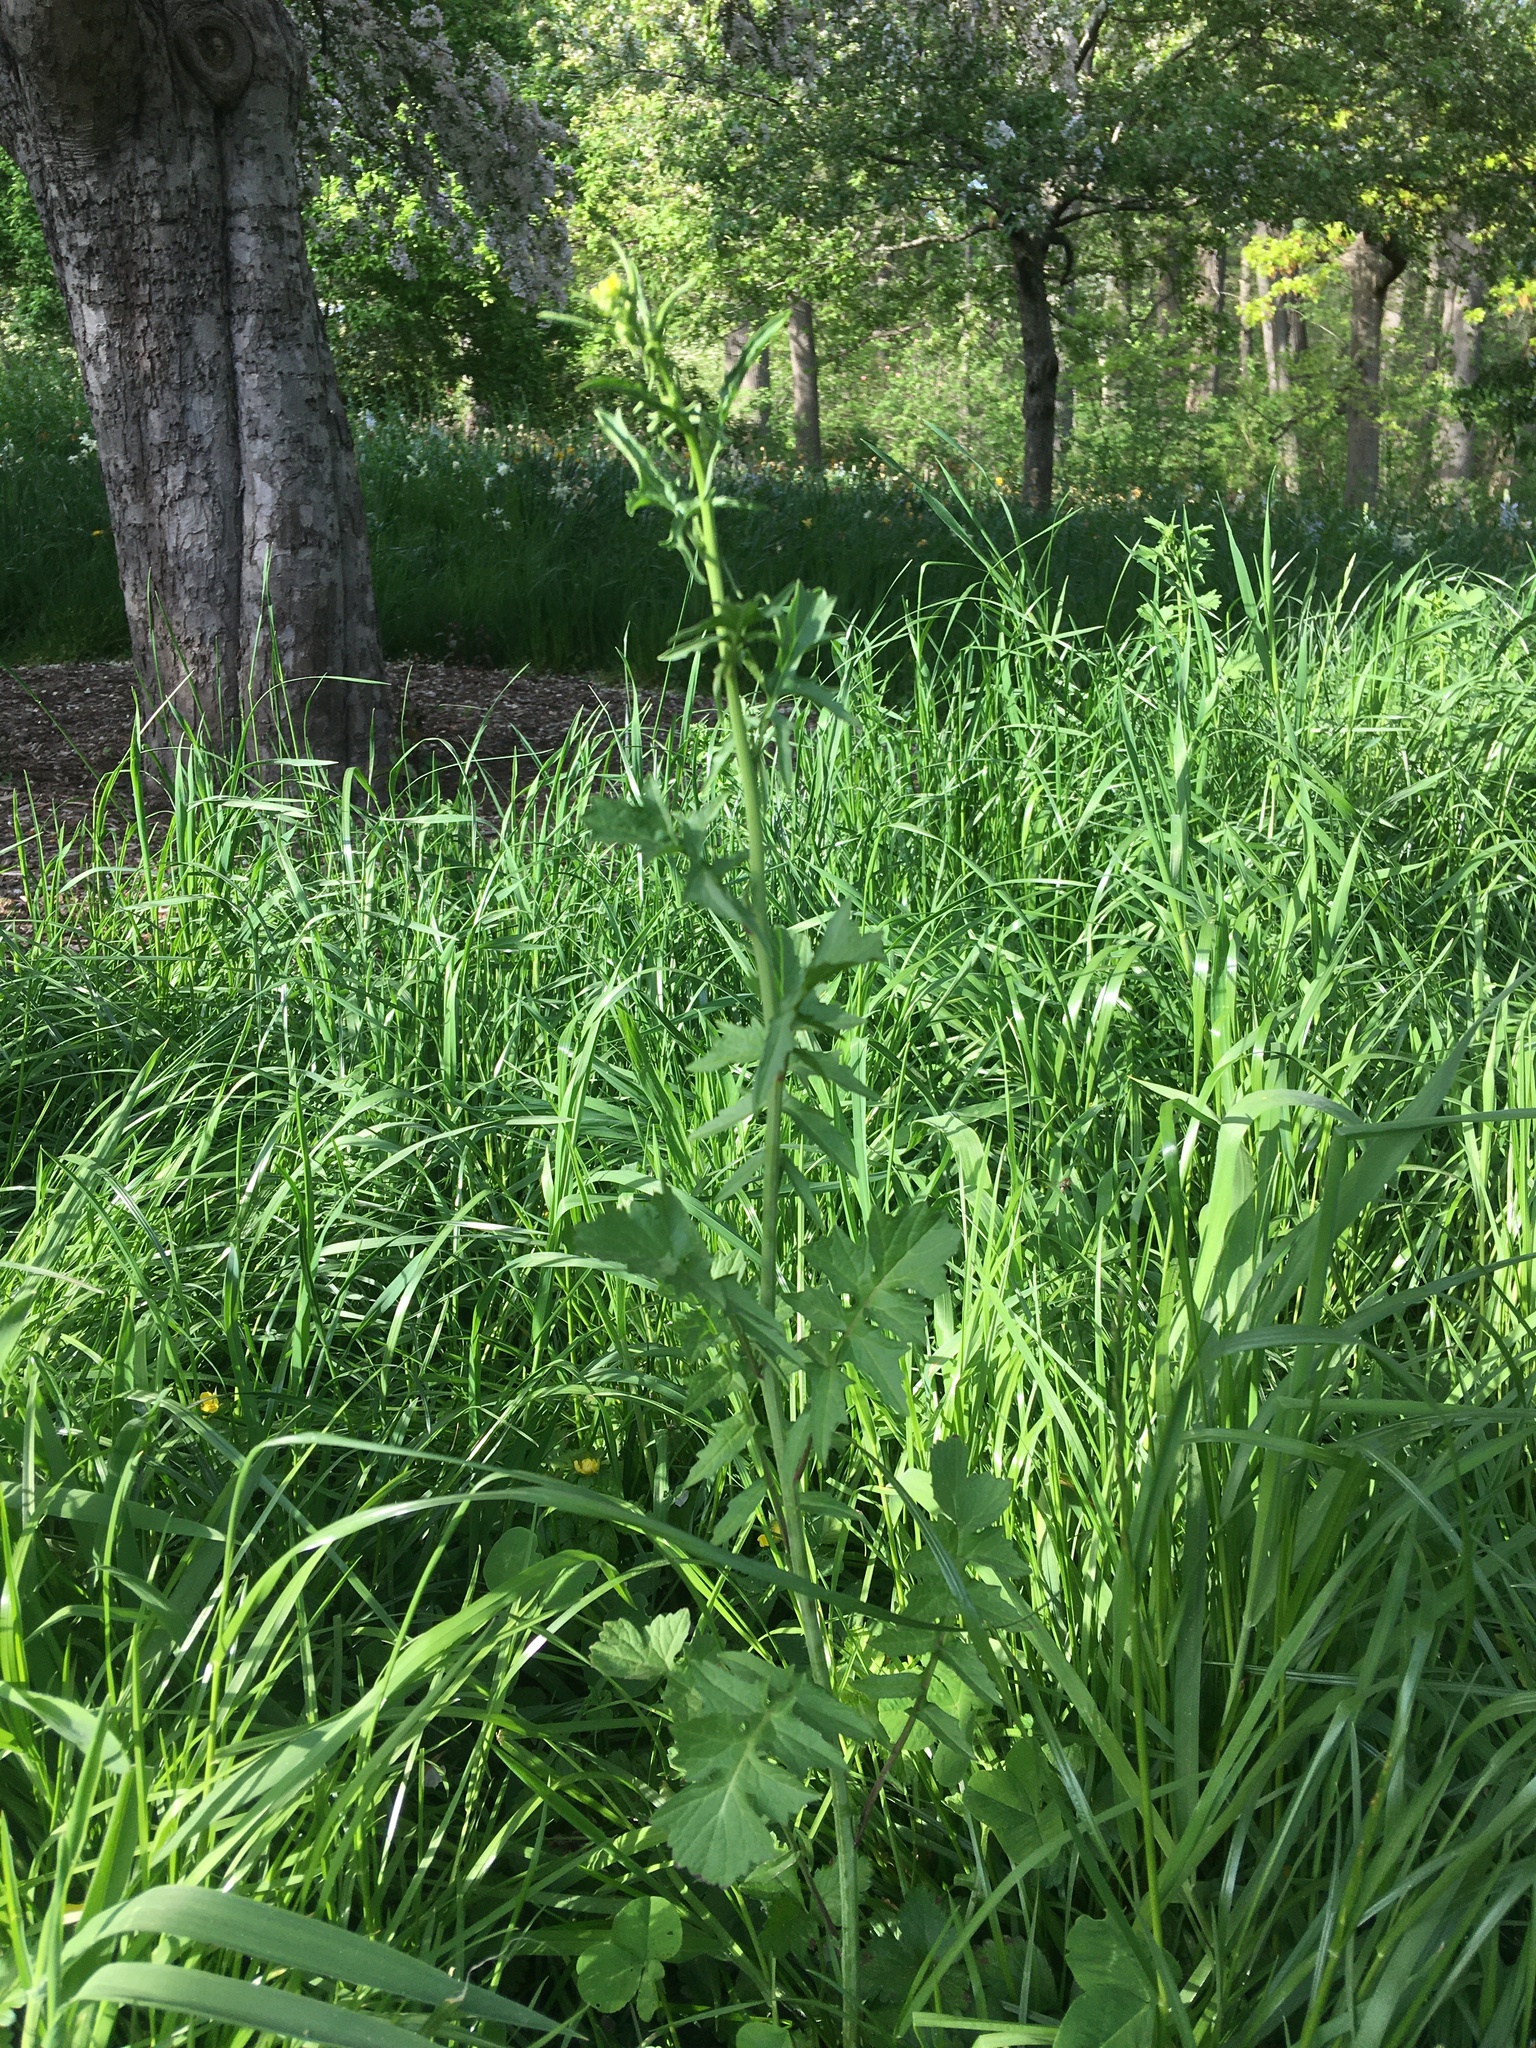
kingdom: Plantae
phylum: Tracheophyta
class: Magnoliopsida
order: Brassicales
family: Brassicaceae
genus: Sisymbrium
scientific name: Sisymbrium officinale
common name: Hedge mustard
